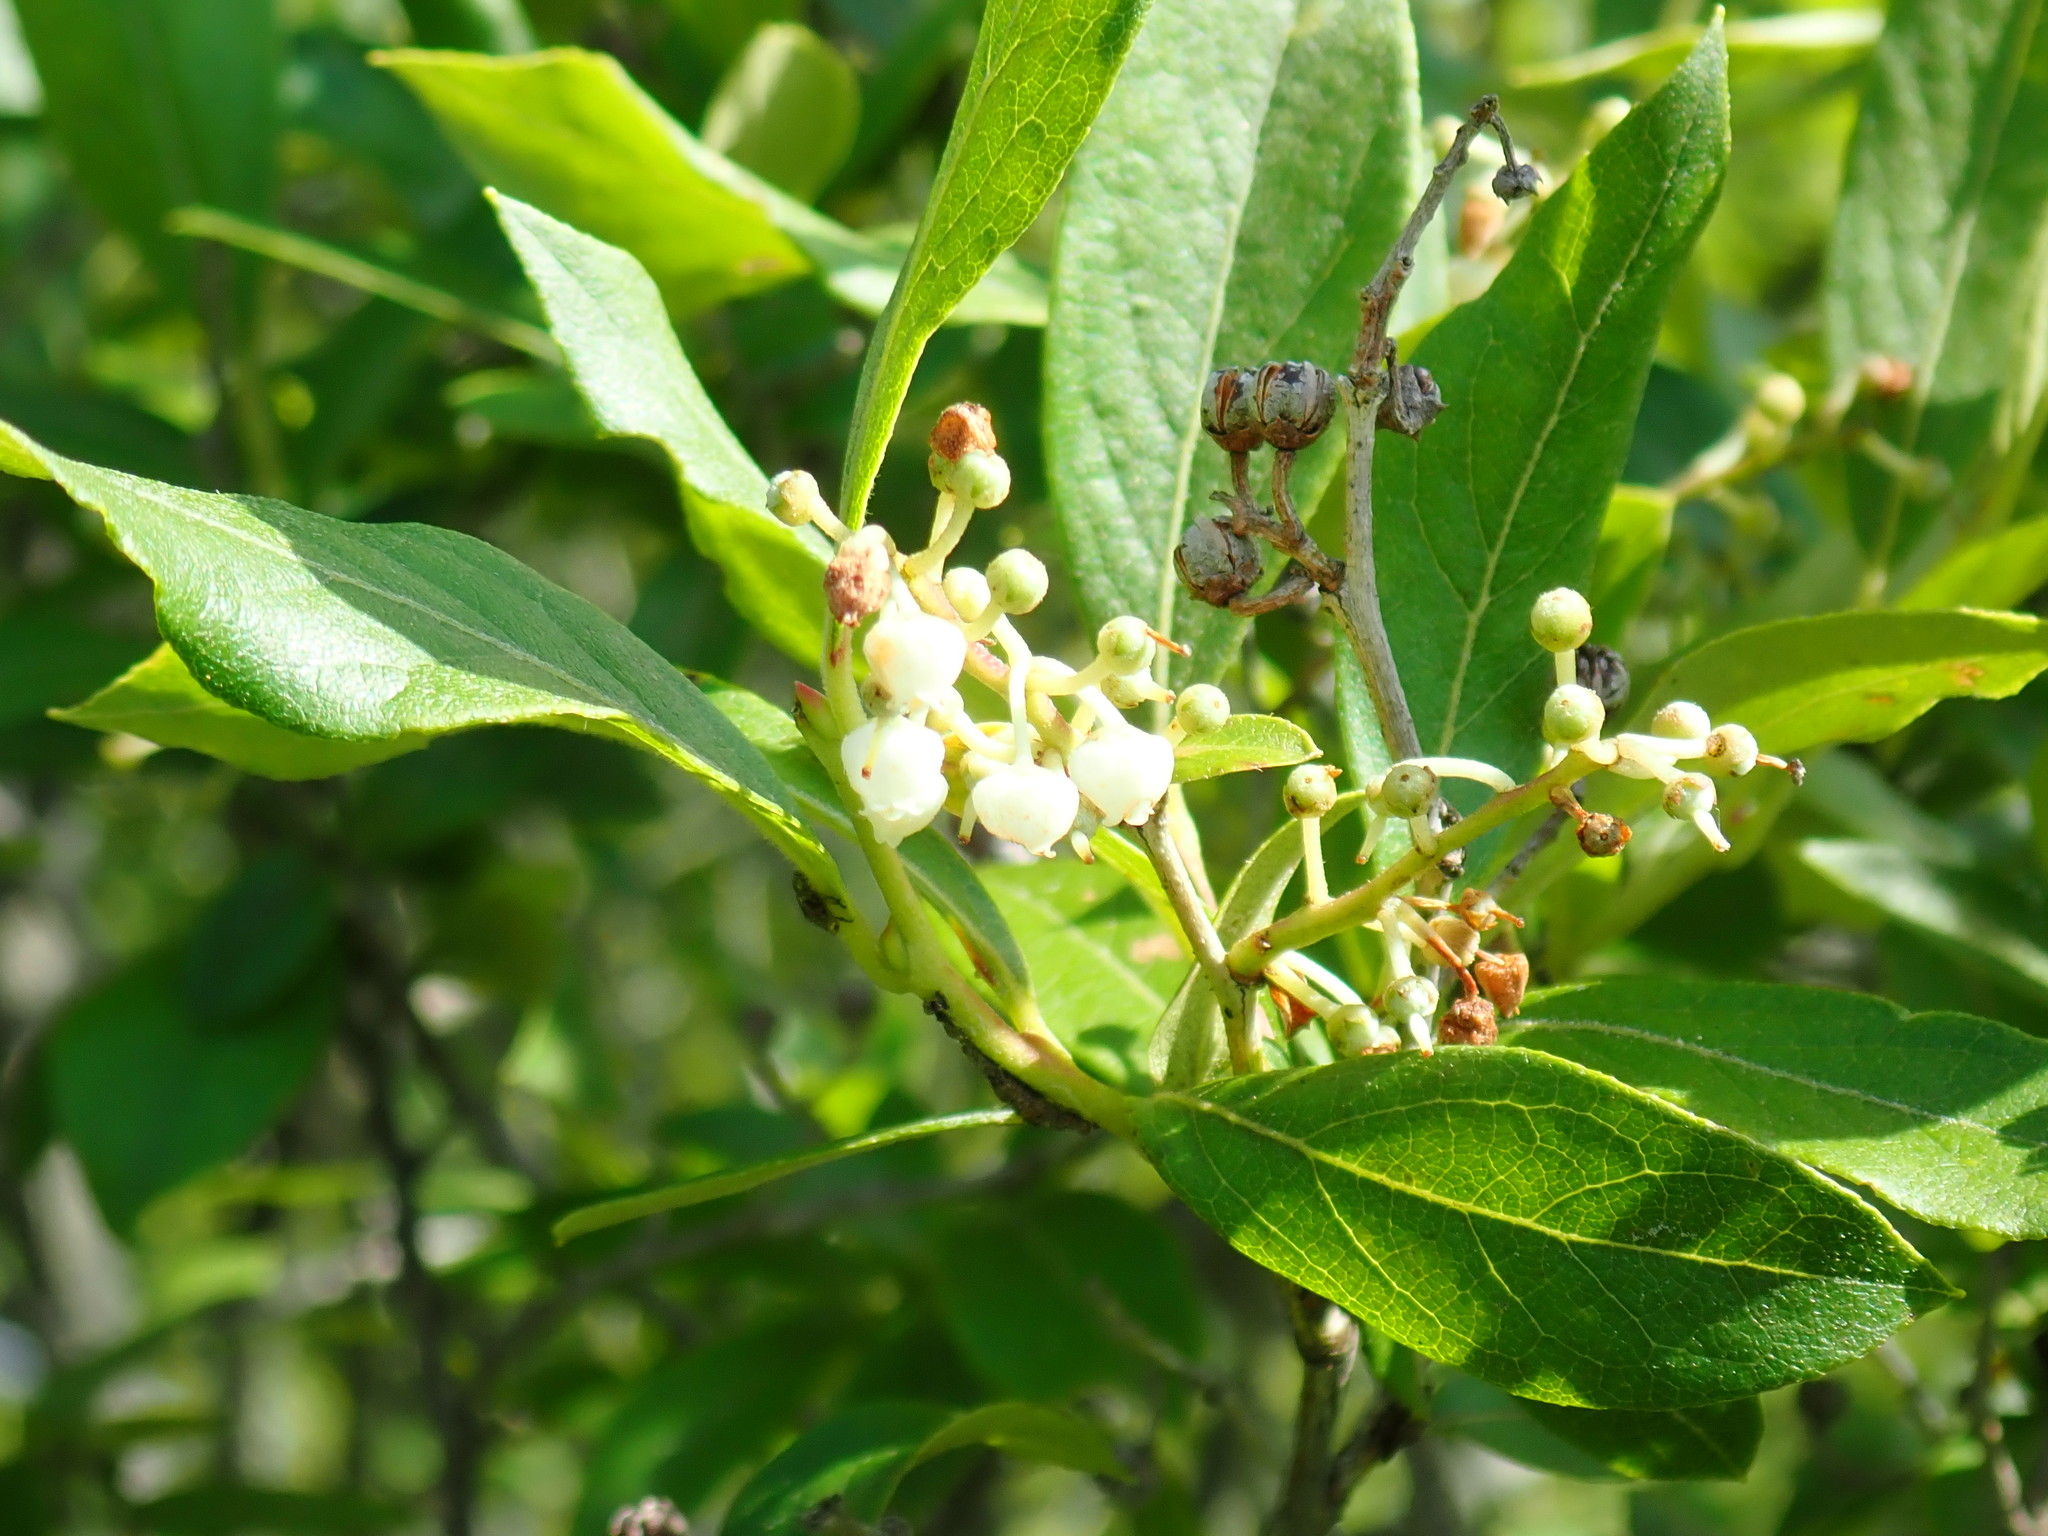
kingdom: Plantae
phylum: Tracheophyta
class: Magnoliopsida
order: Ericales
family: Ericaceae
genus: Lyonia
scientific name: Lyonia ligustrina
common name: Maleberry
